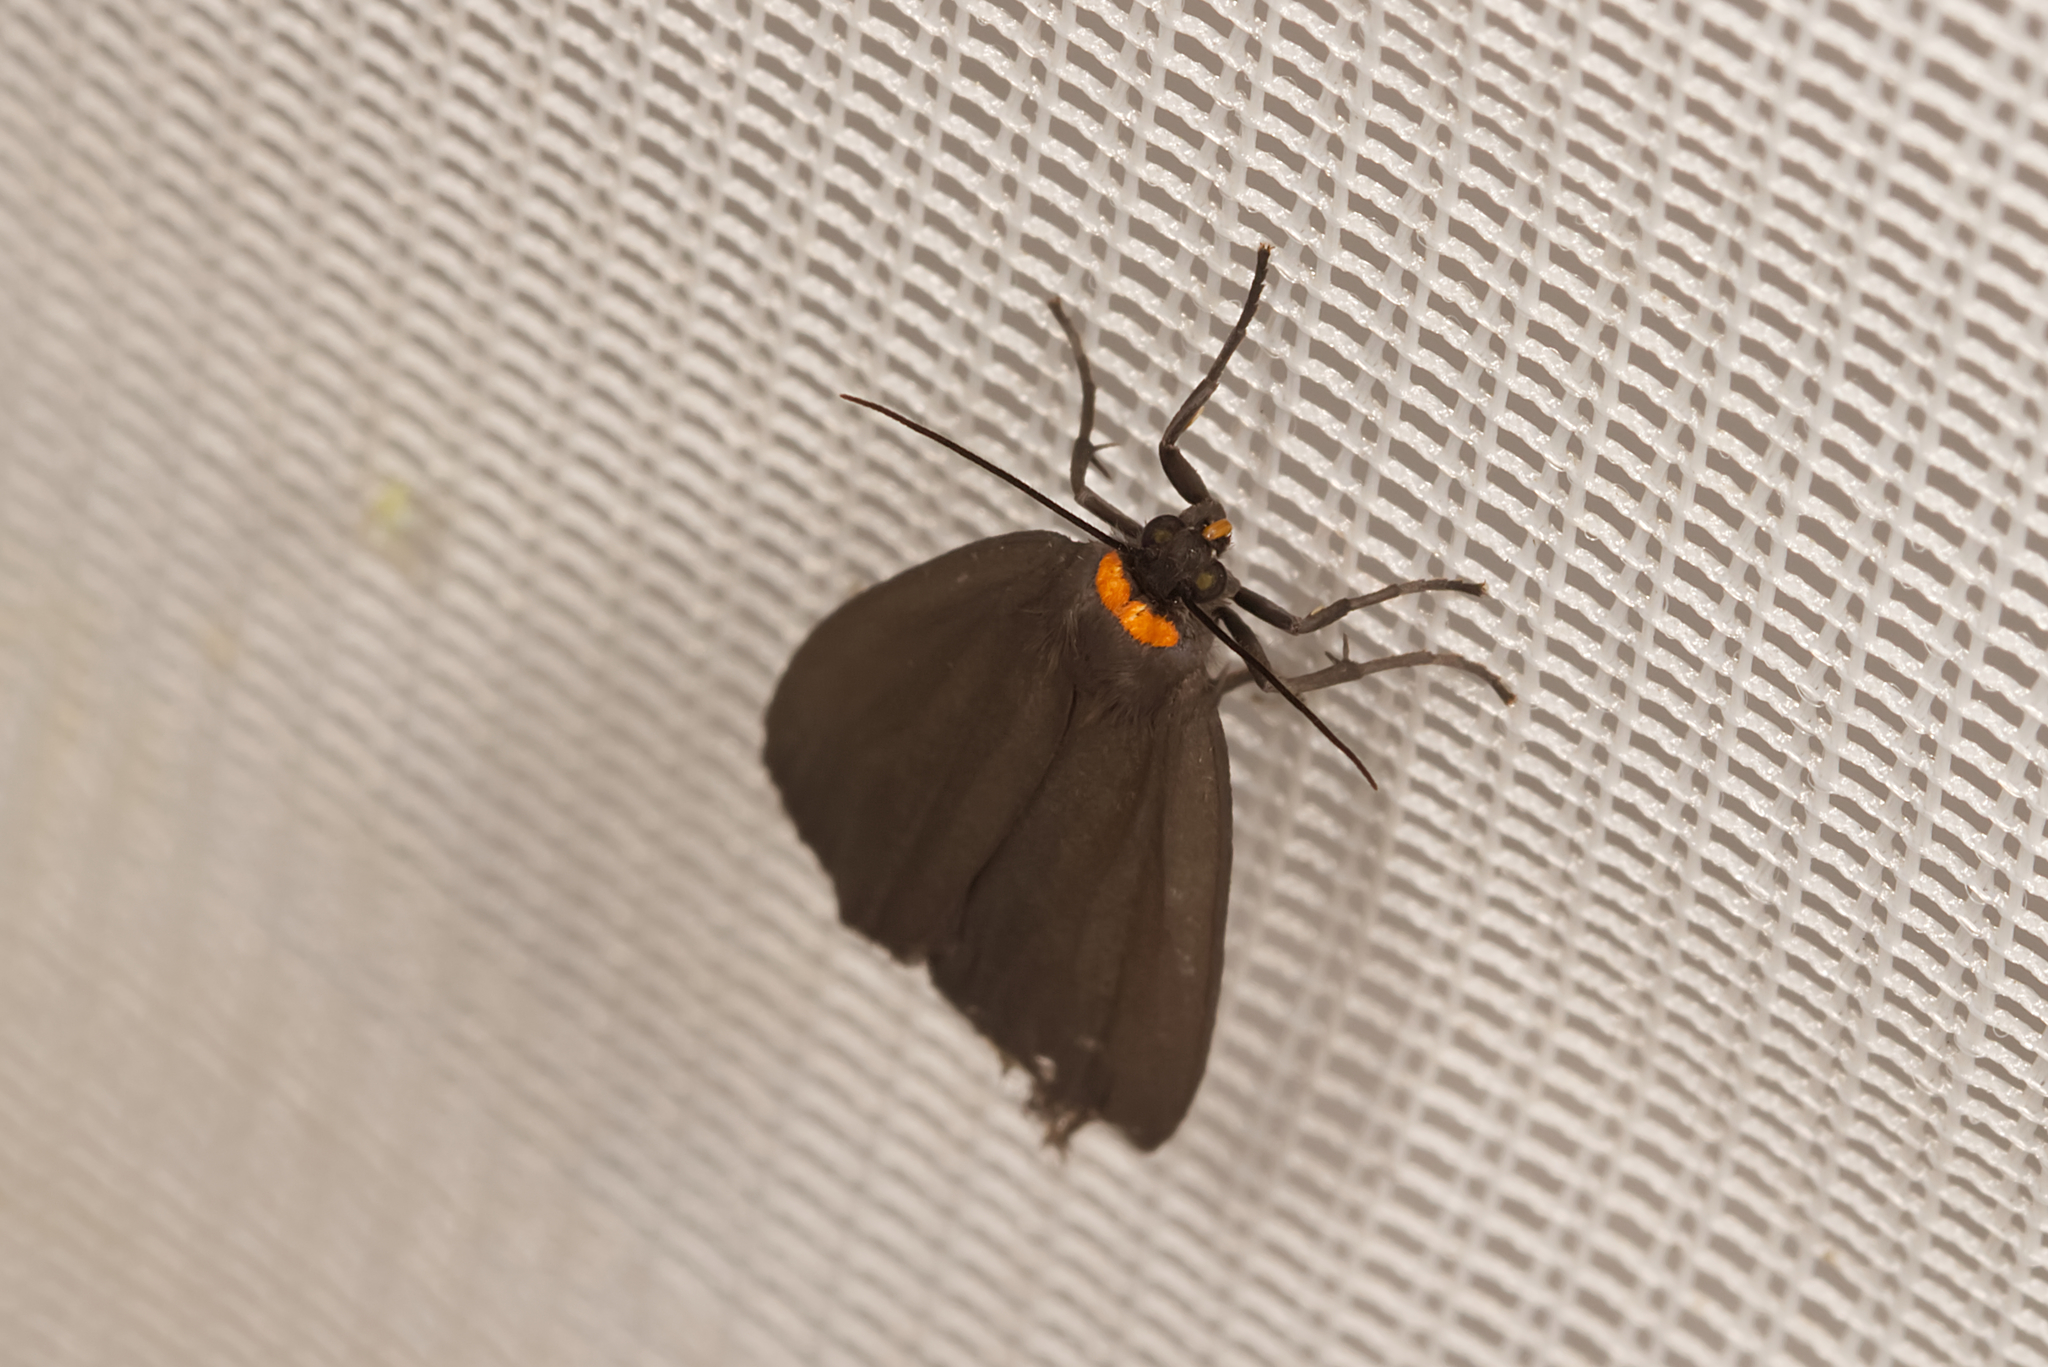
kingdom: Animalia
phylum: Arthropoda
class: Insecta
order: Lepidoptera
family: Erebidae
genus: Atolmis
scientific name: Atolmis rubricollis
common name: Red-necked footman
